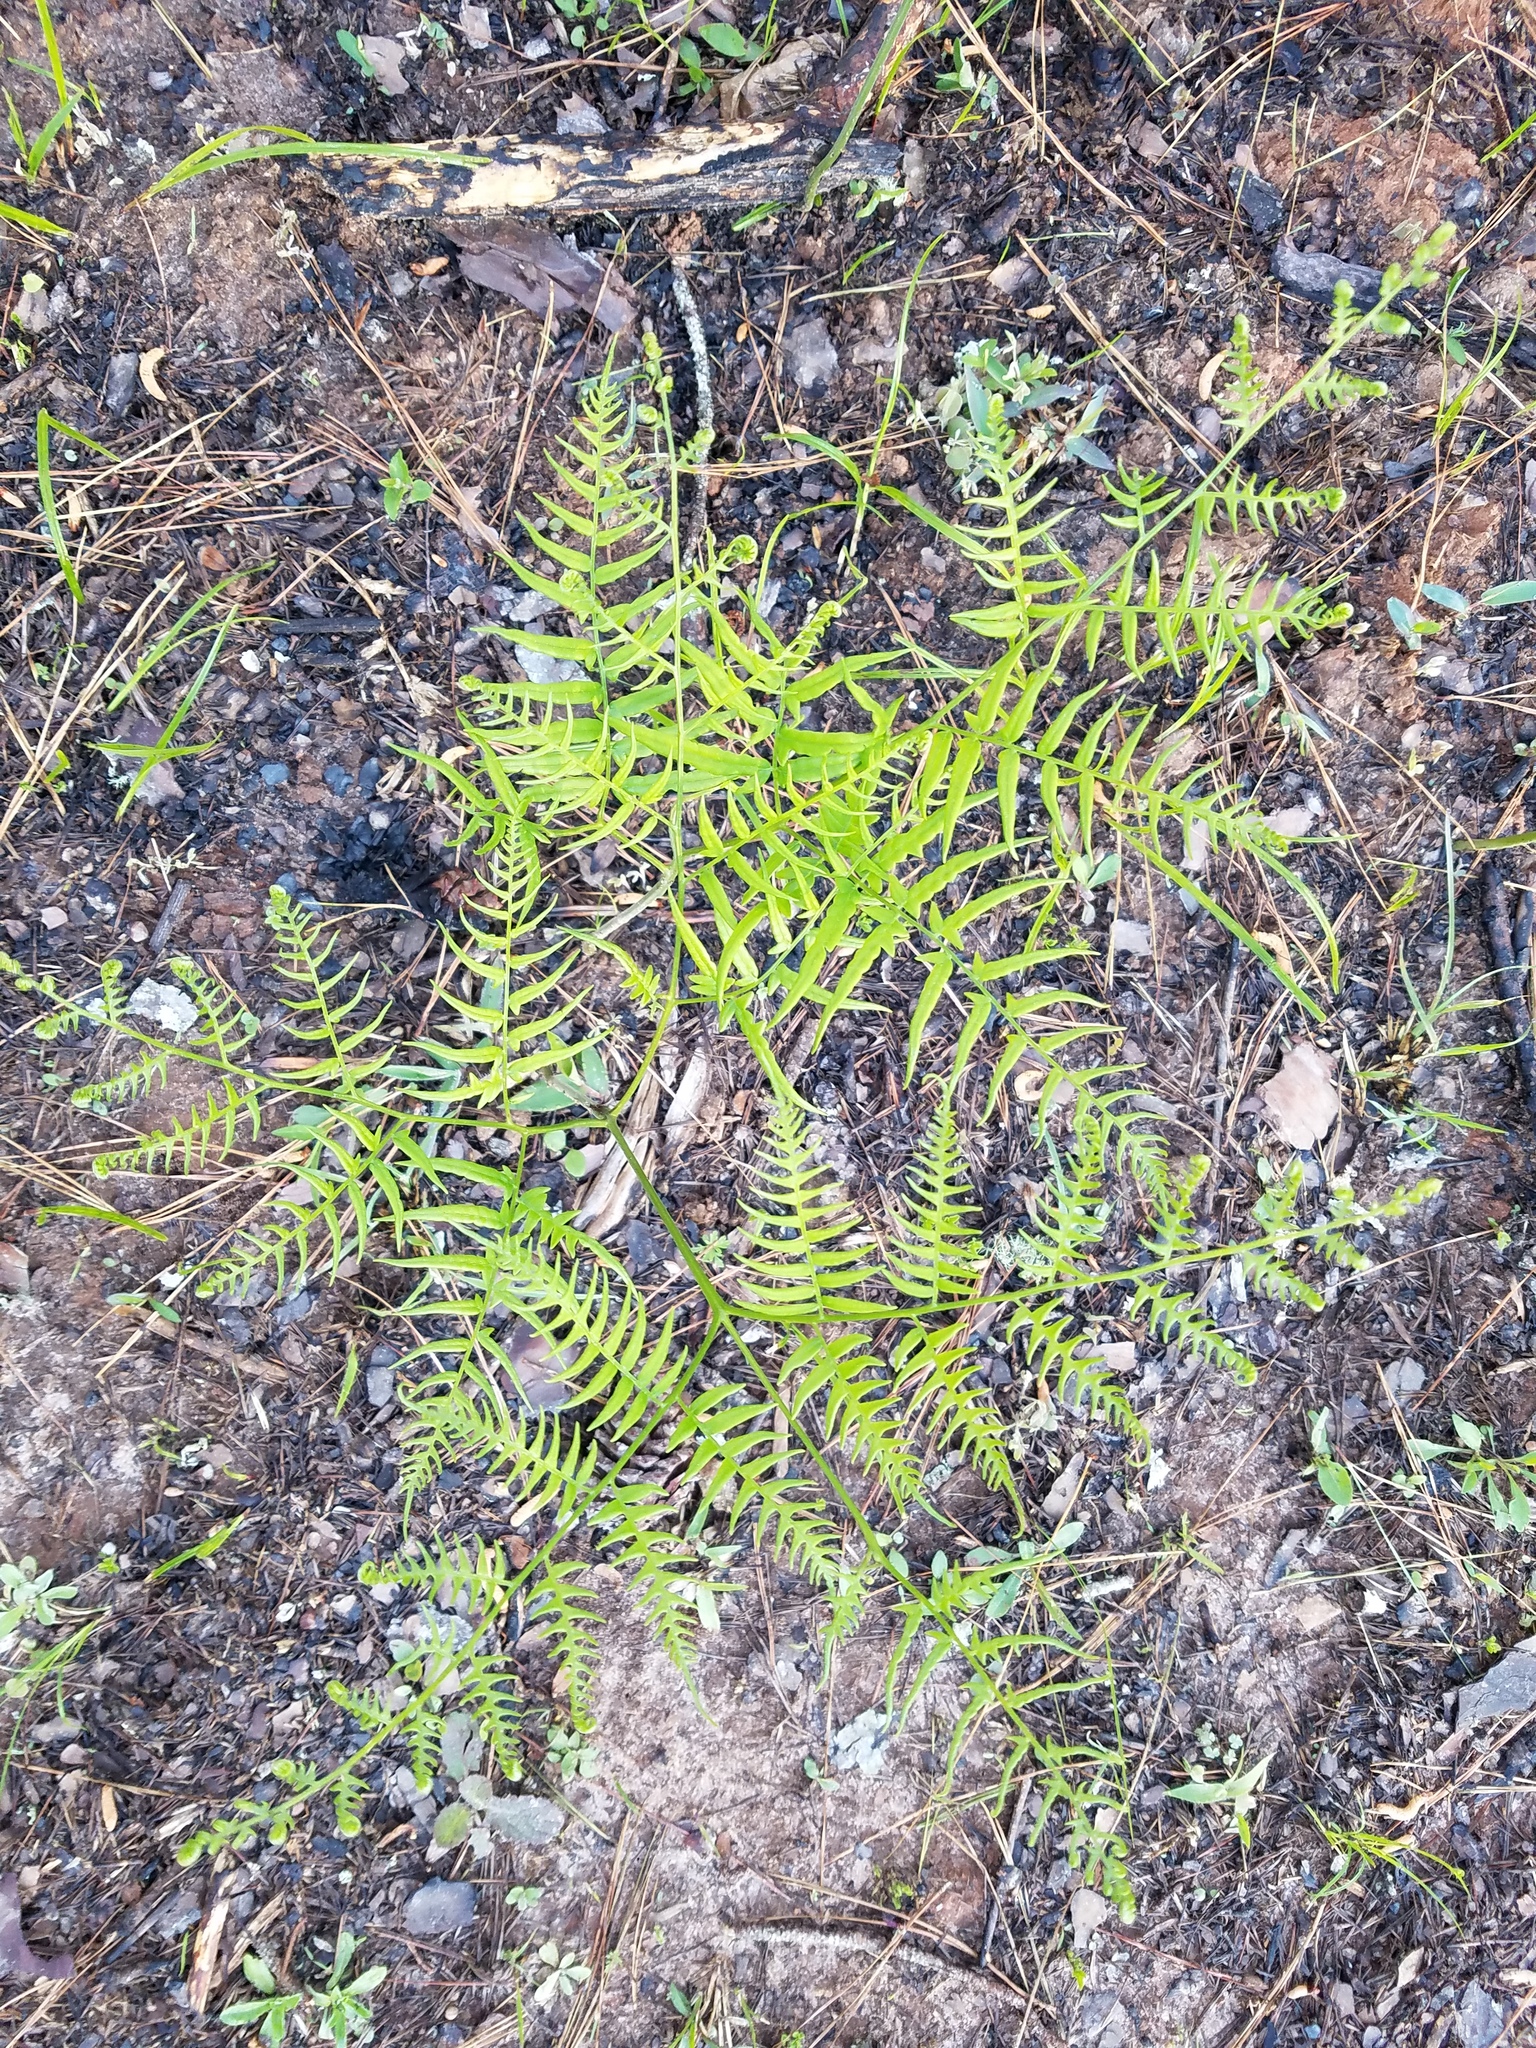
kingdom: Plantae
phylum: Tracheophyta
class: Polypodiopsida
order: Polypodiales
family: Dennstaedtiaceae
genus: Pteridium
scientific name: Pteridium aquilinum
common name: Bracken
